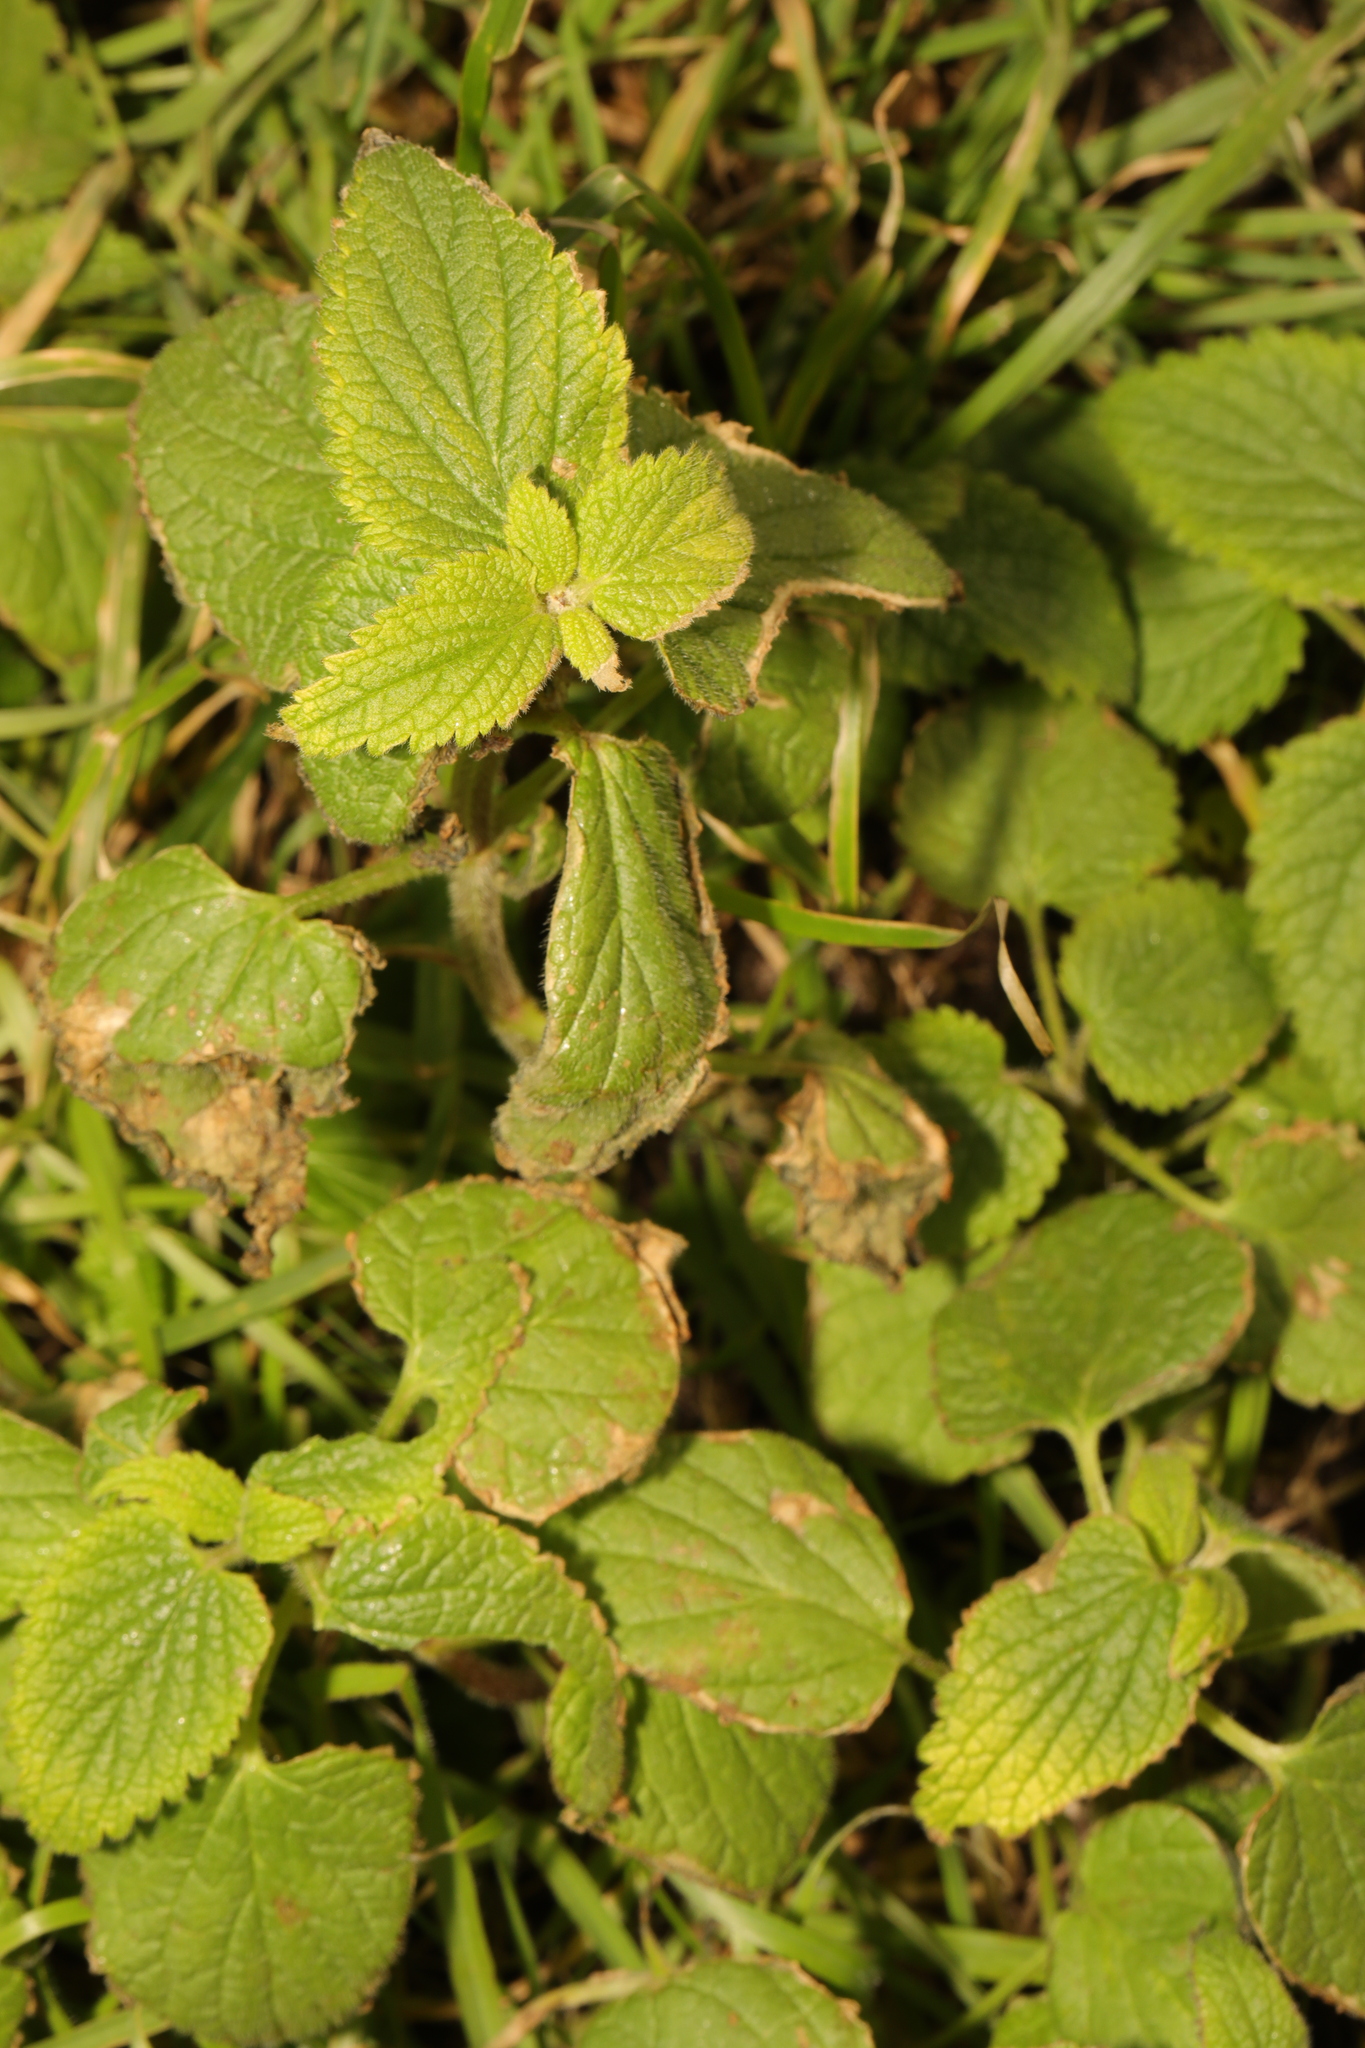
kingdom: Plantae
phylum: Tracheophyta
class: Magnoliopsida
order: Lamiales
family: Lamiaceae
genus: Lamium
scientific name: Lamium album
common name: White dead-nettle
